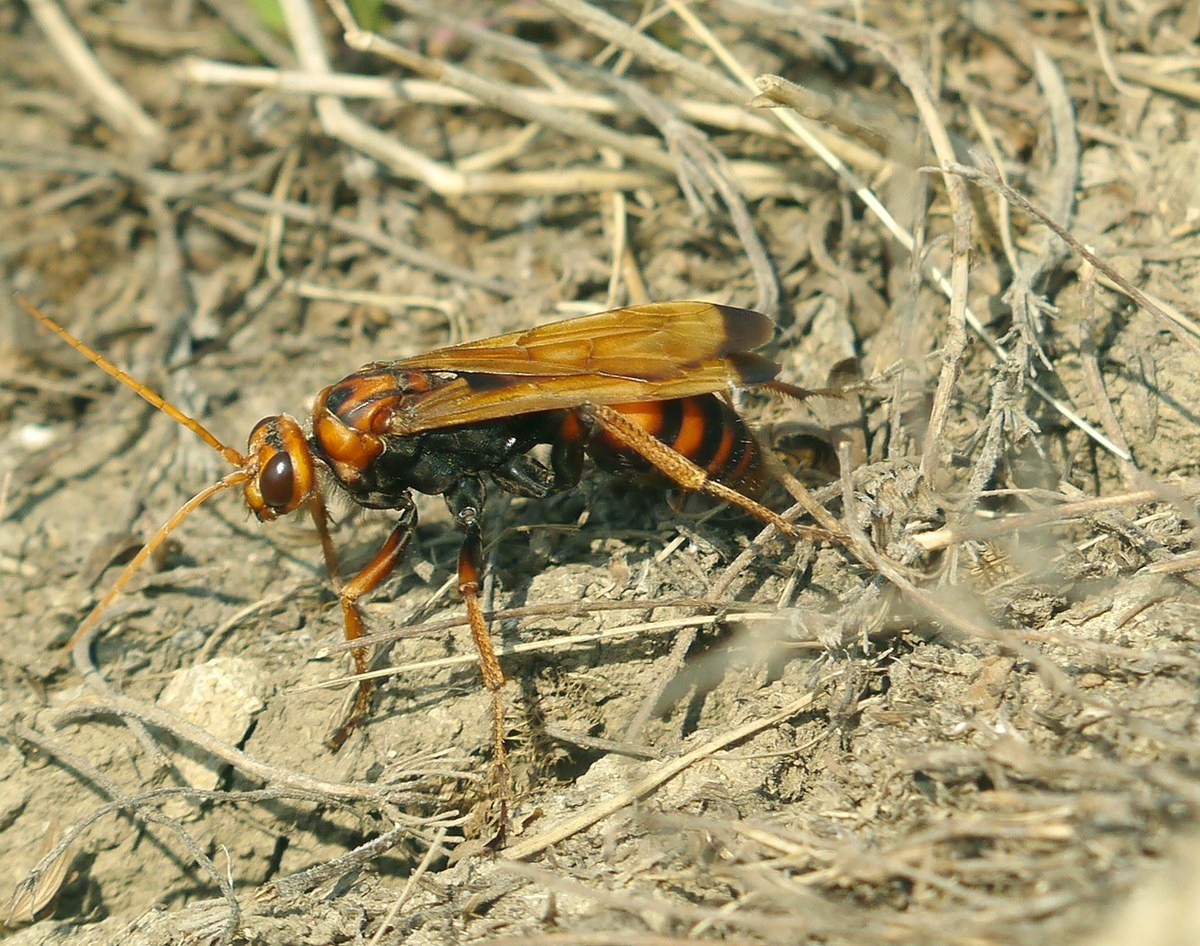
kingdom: Animalia
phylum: Arthropoda
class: Insecta
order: Hymenoptera
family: Pompilidae
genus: Cryptocheilus
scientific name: Cryptocheilus rubellus
